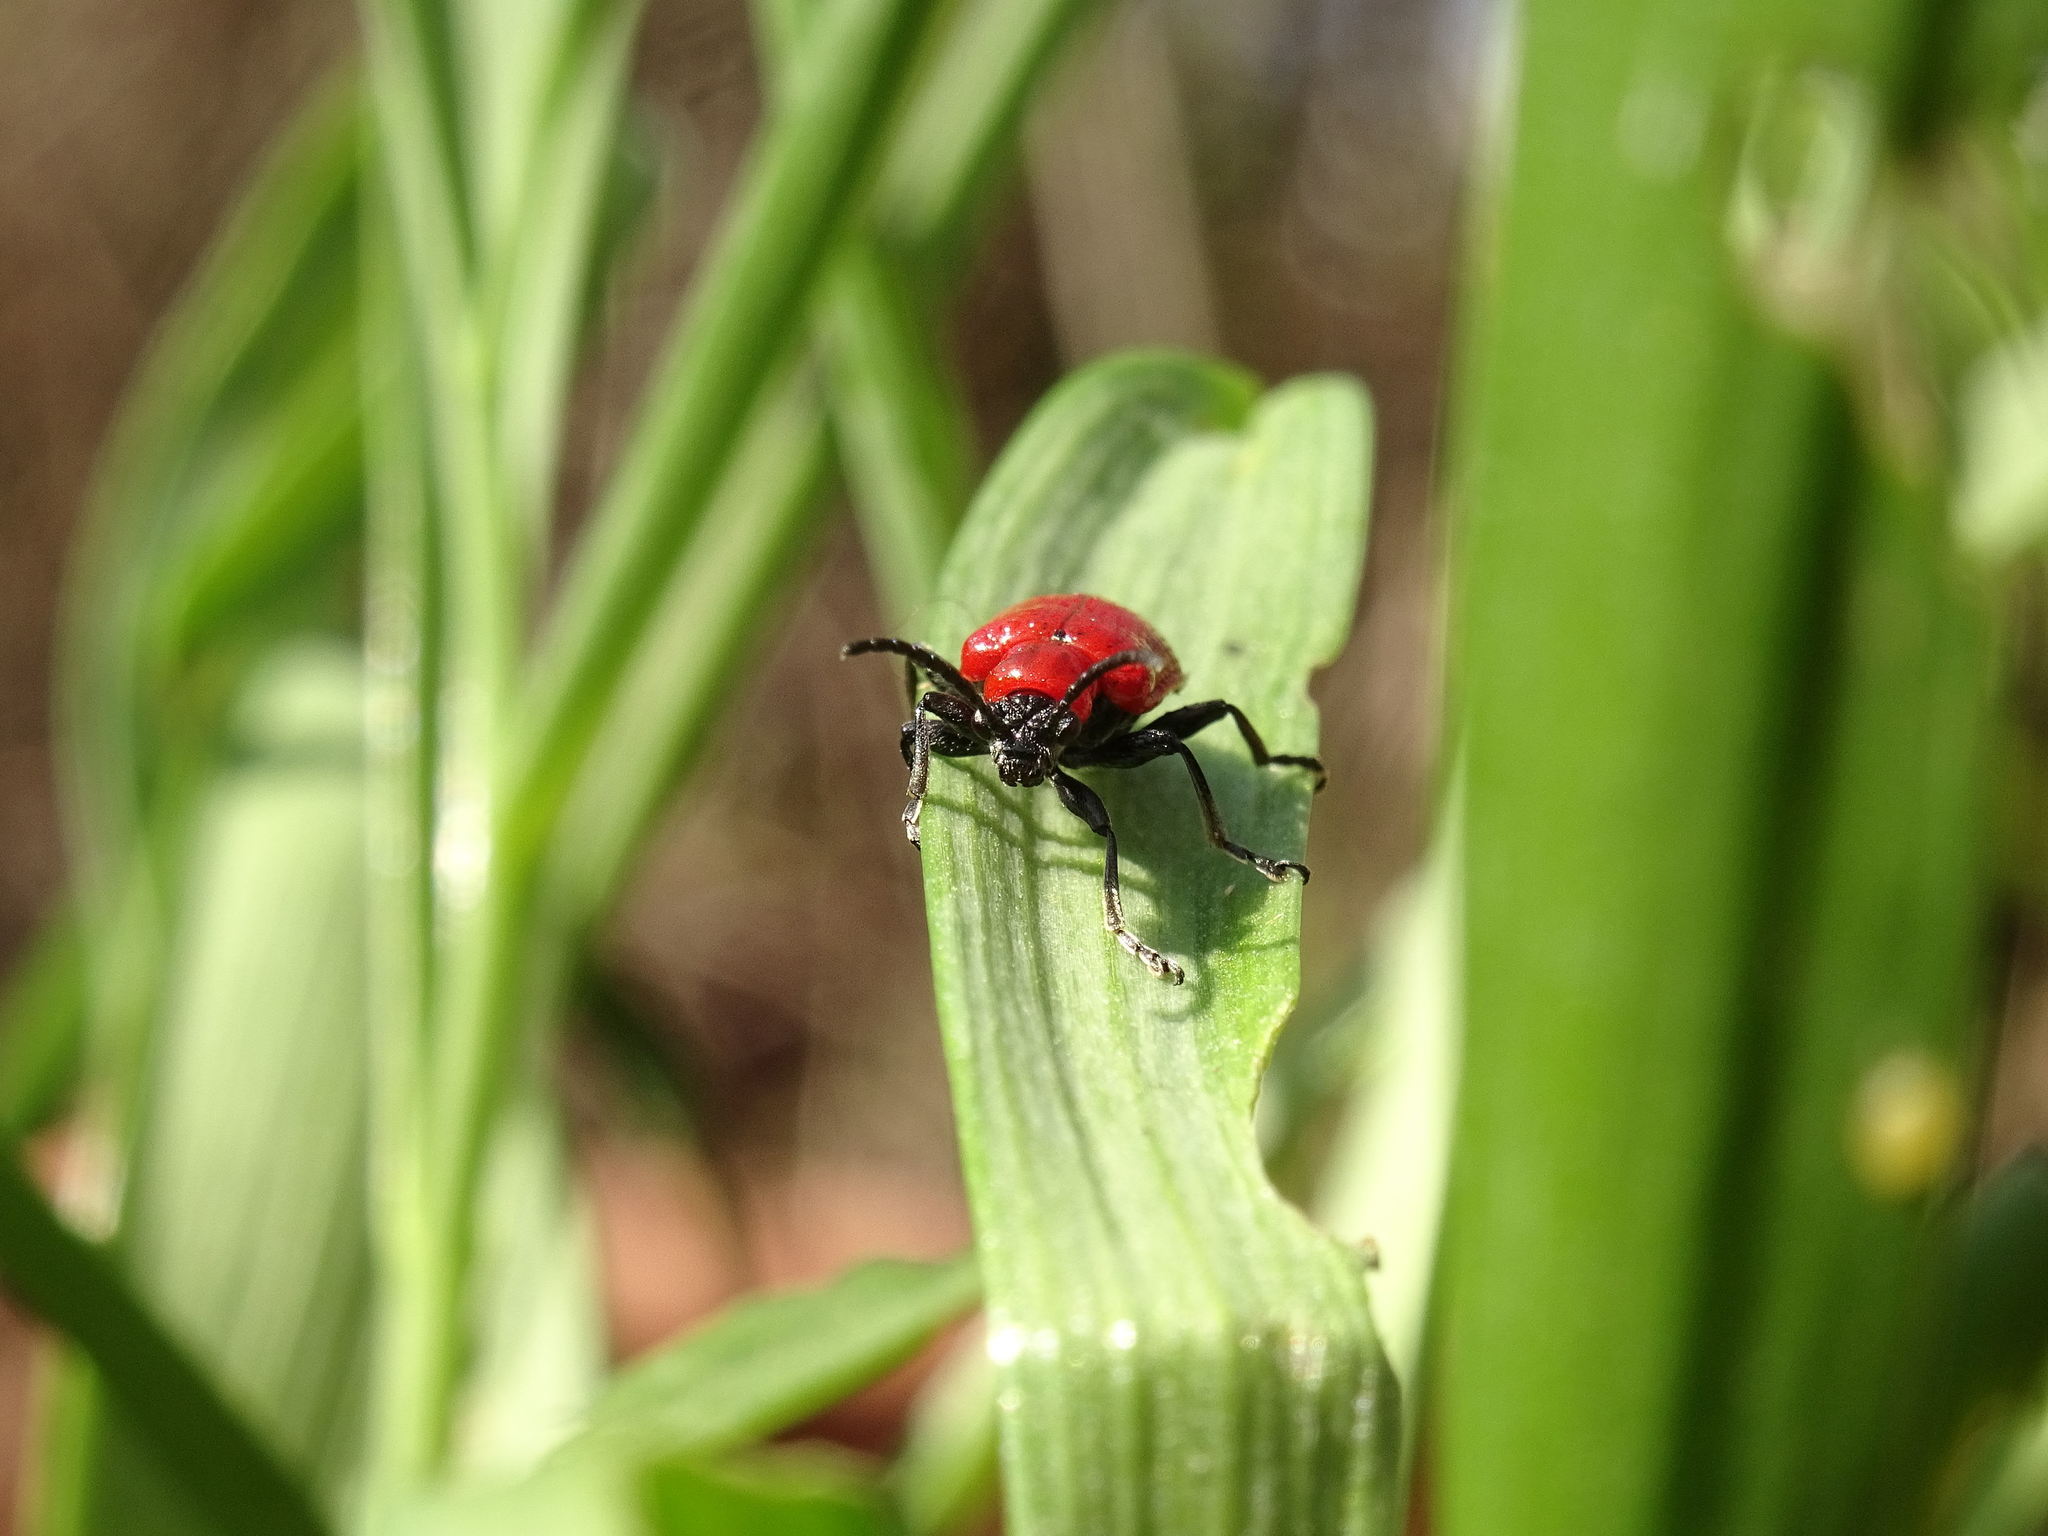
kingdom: Animalia
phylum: Arthropoda
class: Insecta
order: Coleoptera
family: Chrysomelidae
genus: Lilioceris
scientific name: Lilioceris lilii
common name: Lily beetle
